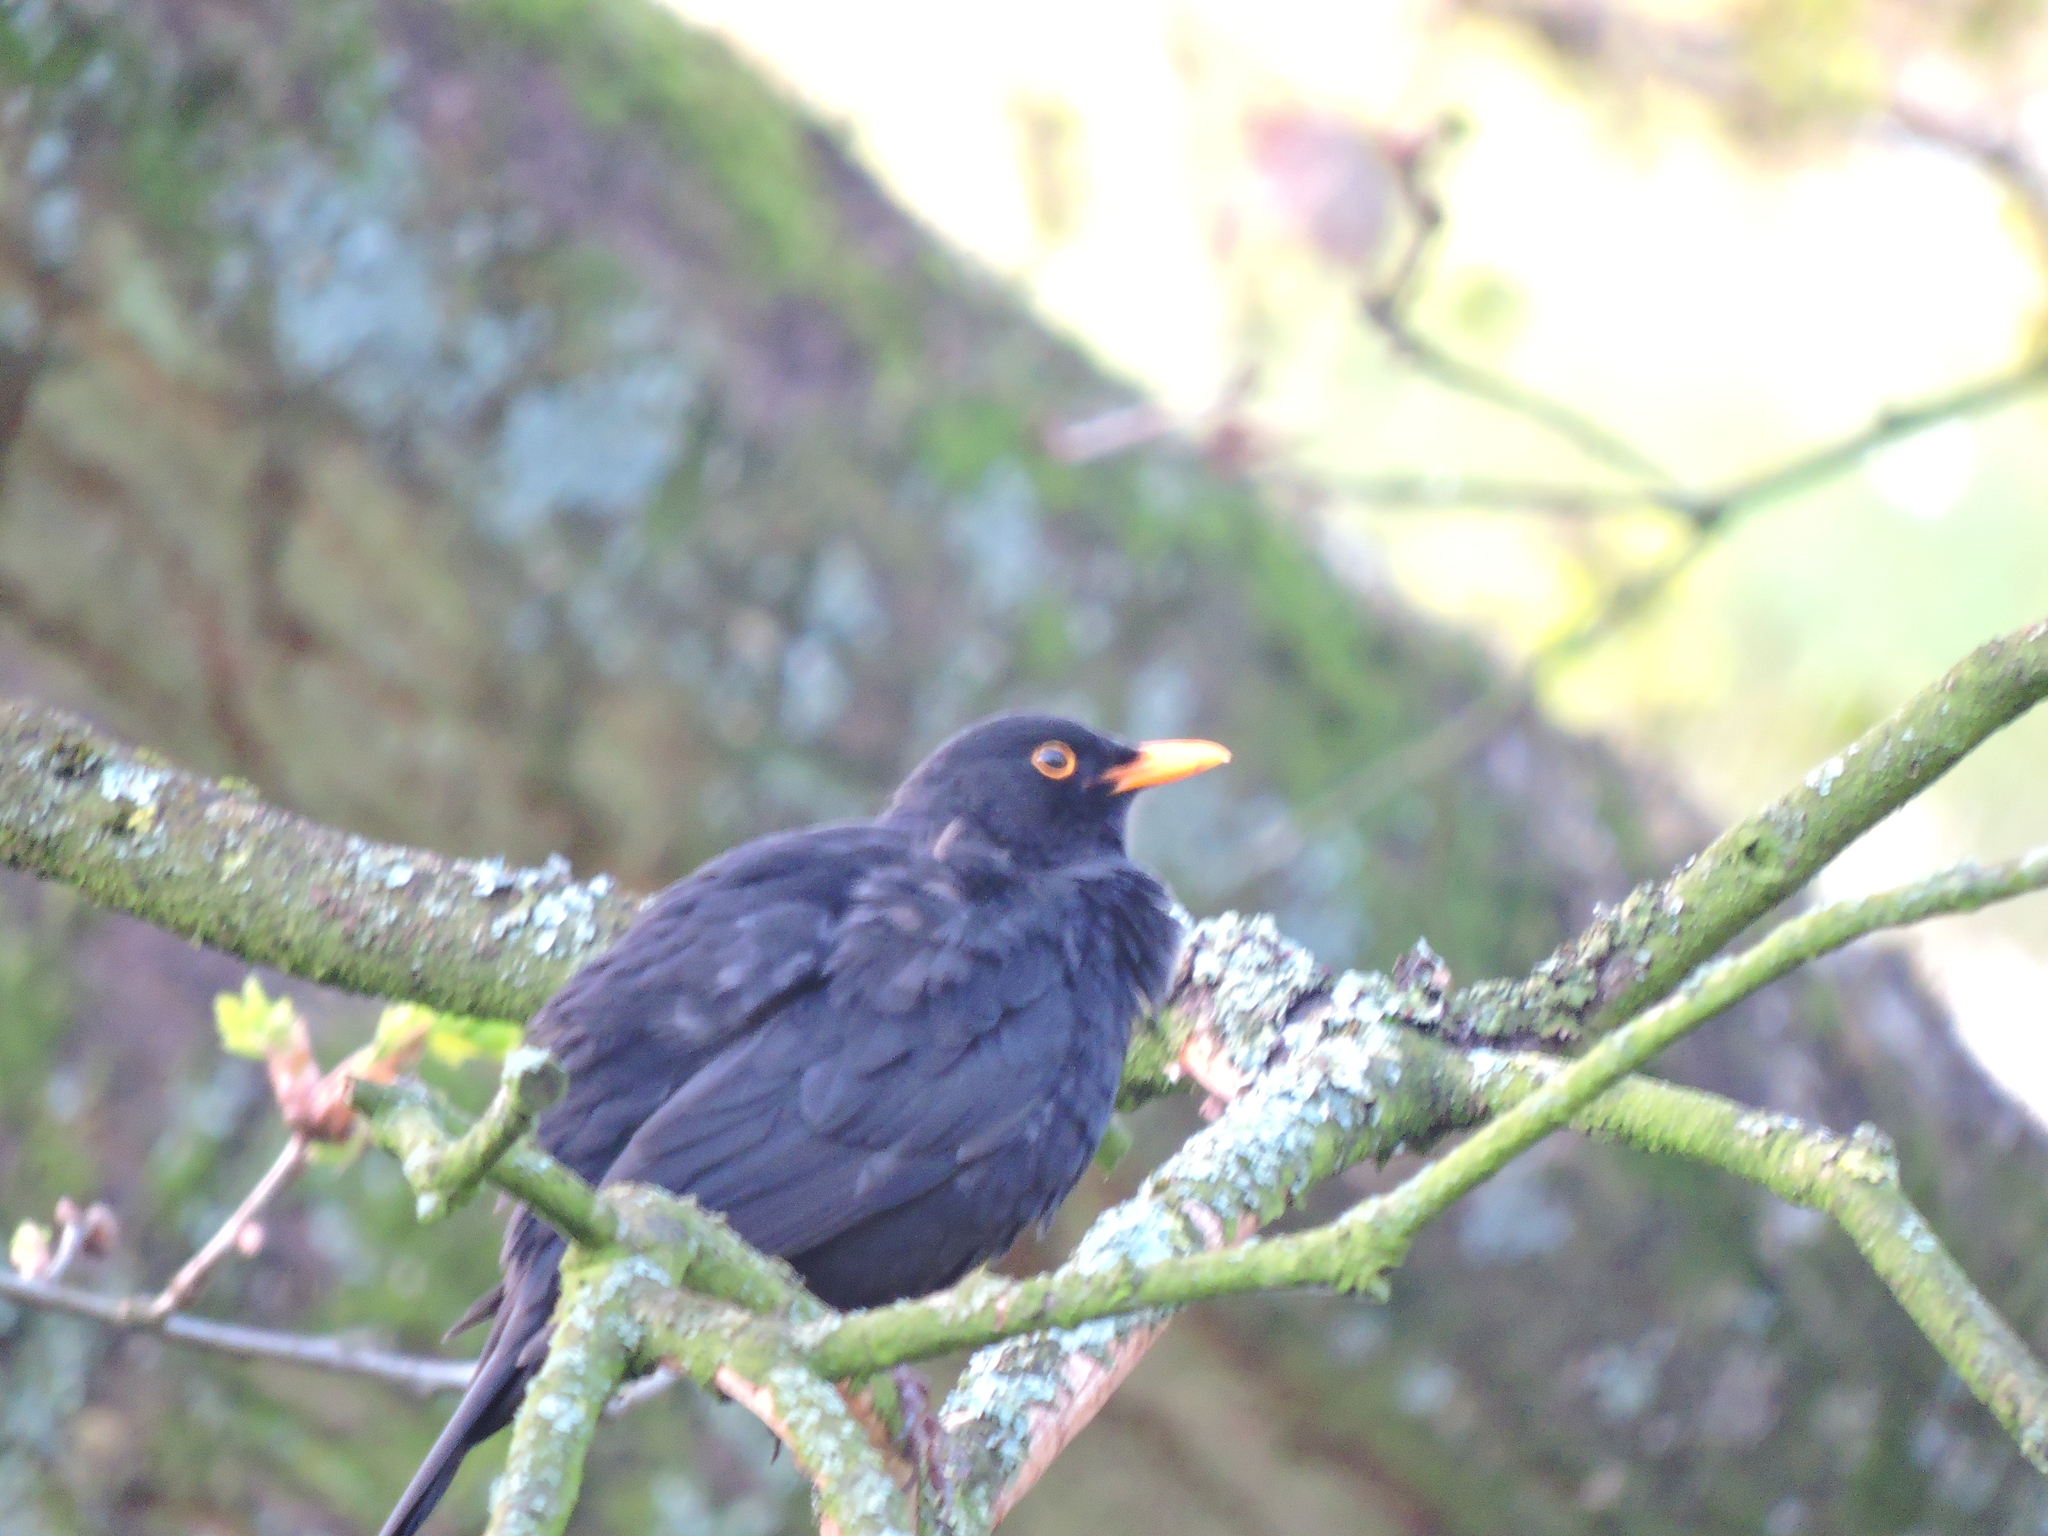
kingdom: Animalia
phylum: Chordata
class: Aves
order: Passeriformes
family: Turdidae
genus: Turdus
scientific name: Turdus merula
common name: Common blackbird
